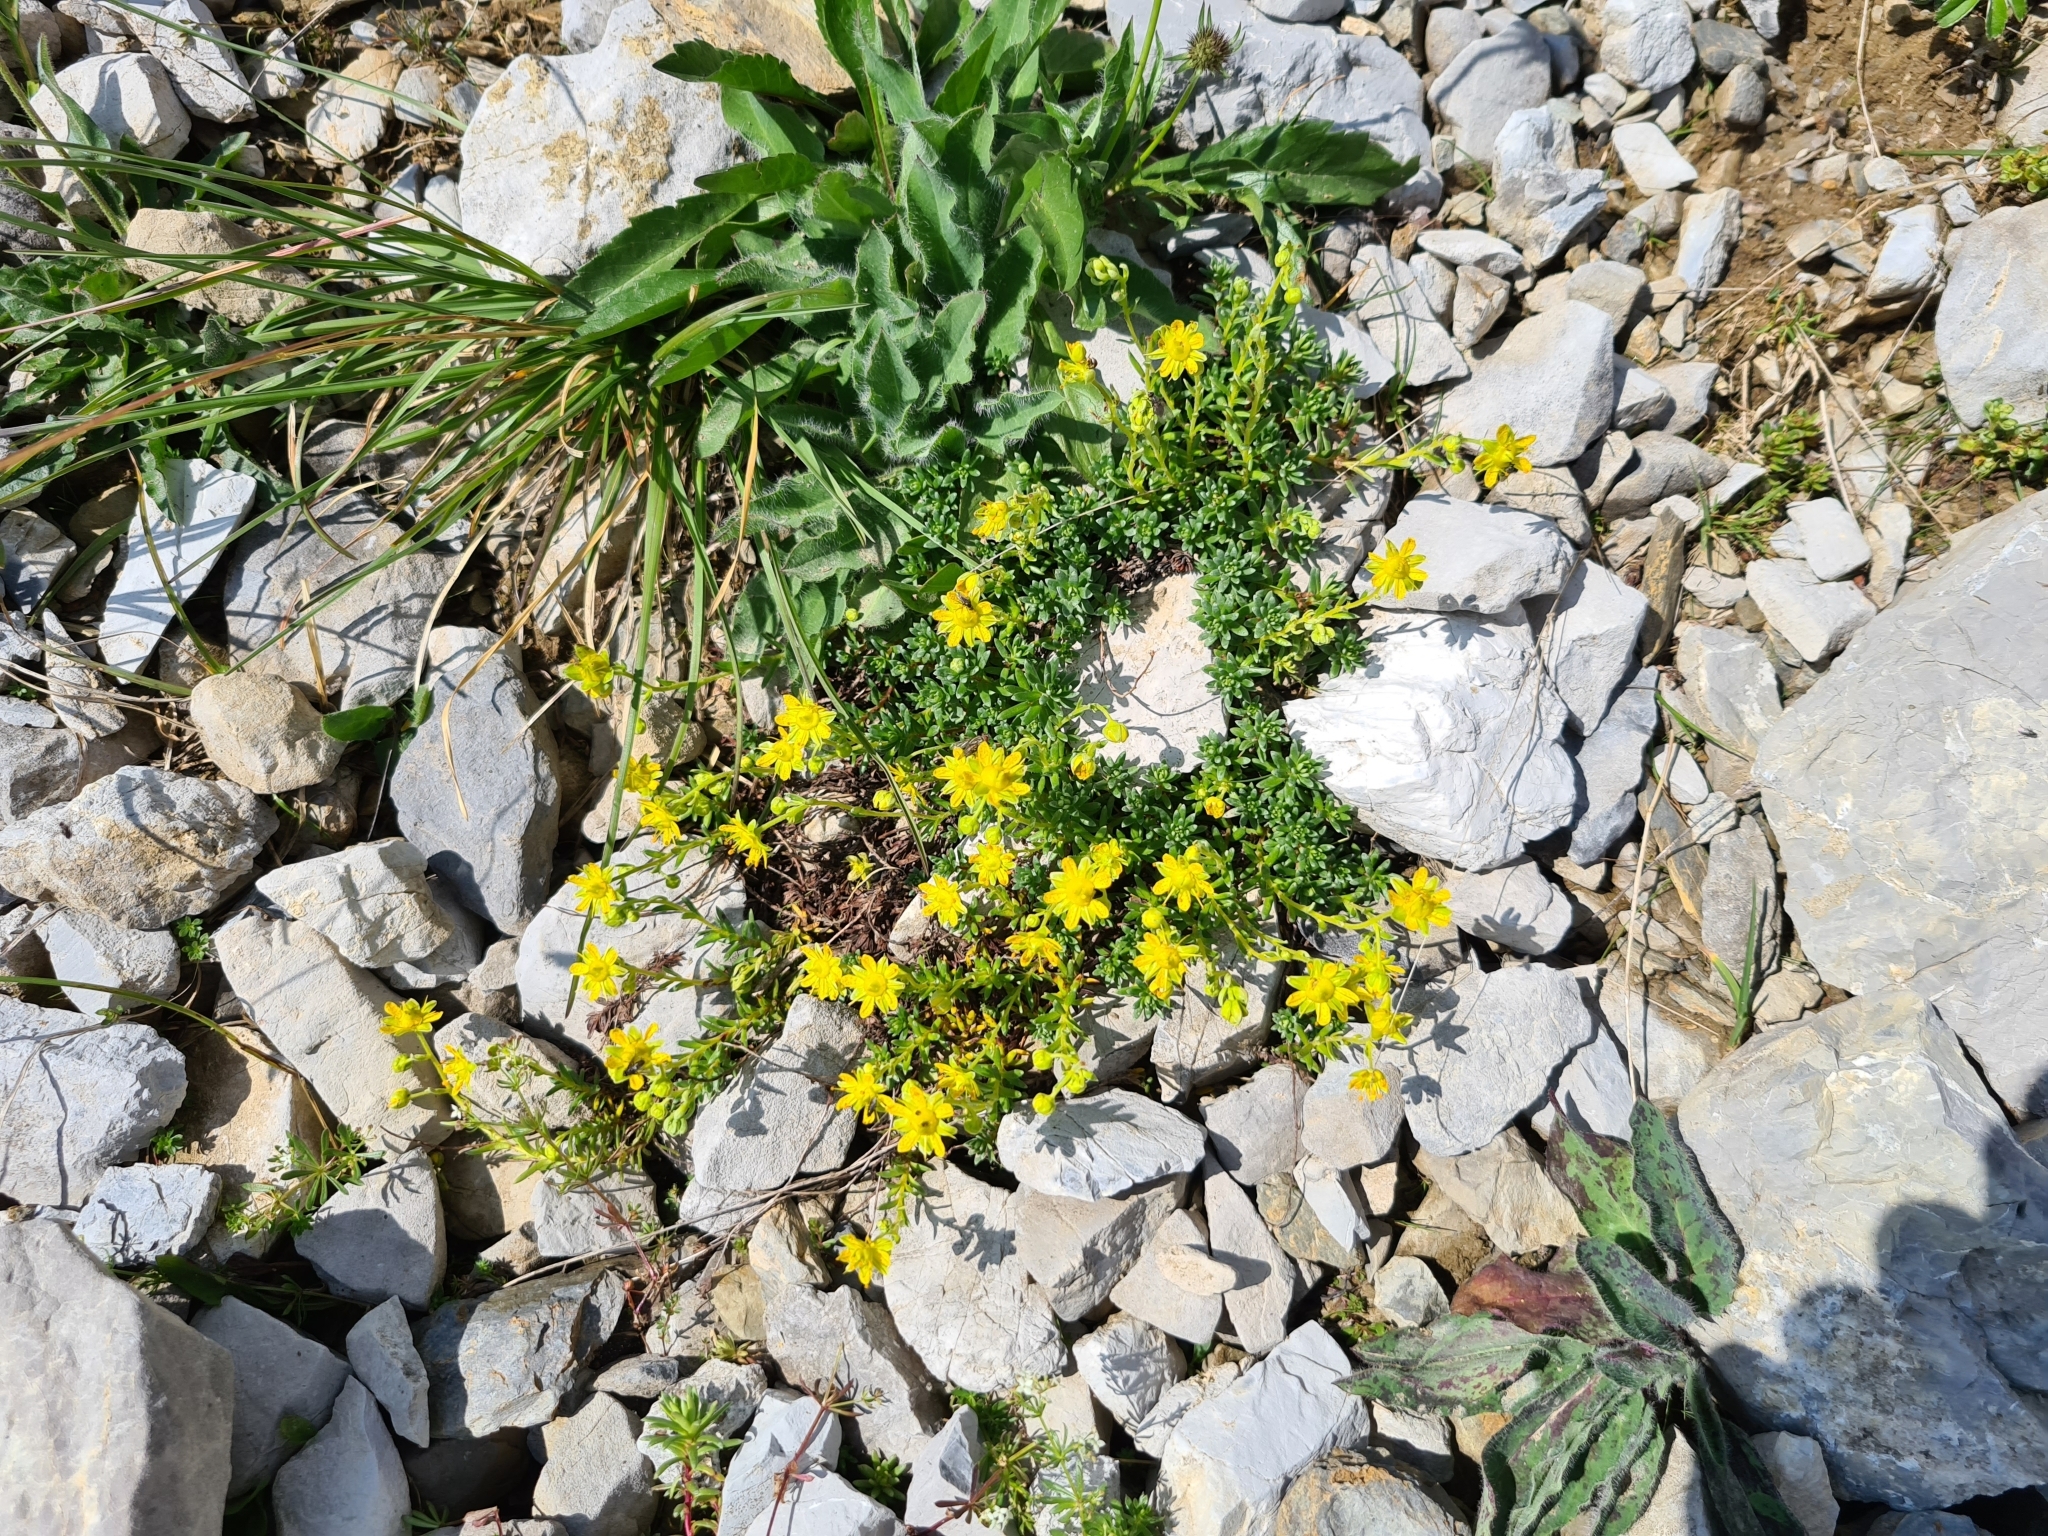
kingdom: Plantae
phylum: Tracheophyta
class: Magnoliopsida
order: Saxifragales
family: Saxifragaceae
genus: Saxifraga
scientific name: Saxifraga aizoides
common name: Yellow mountain saxifrage
